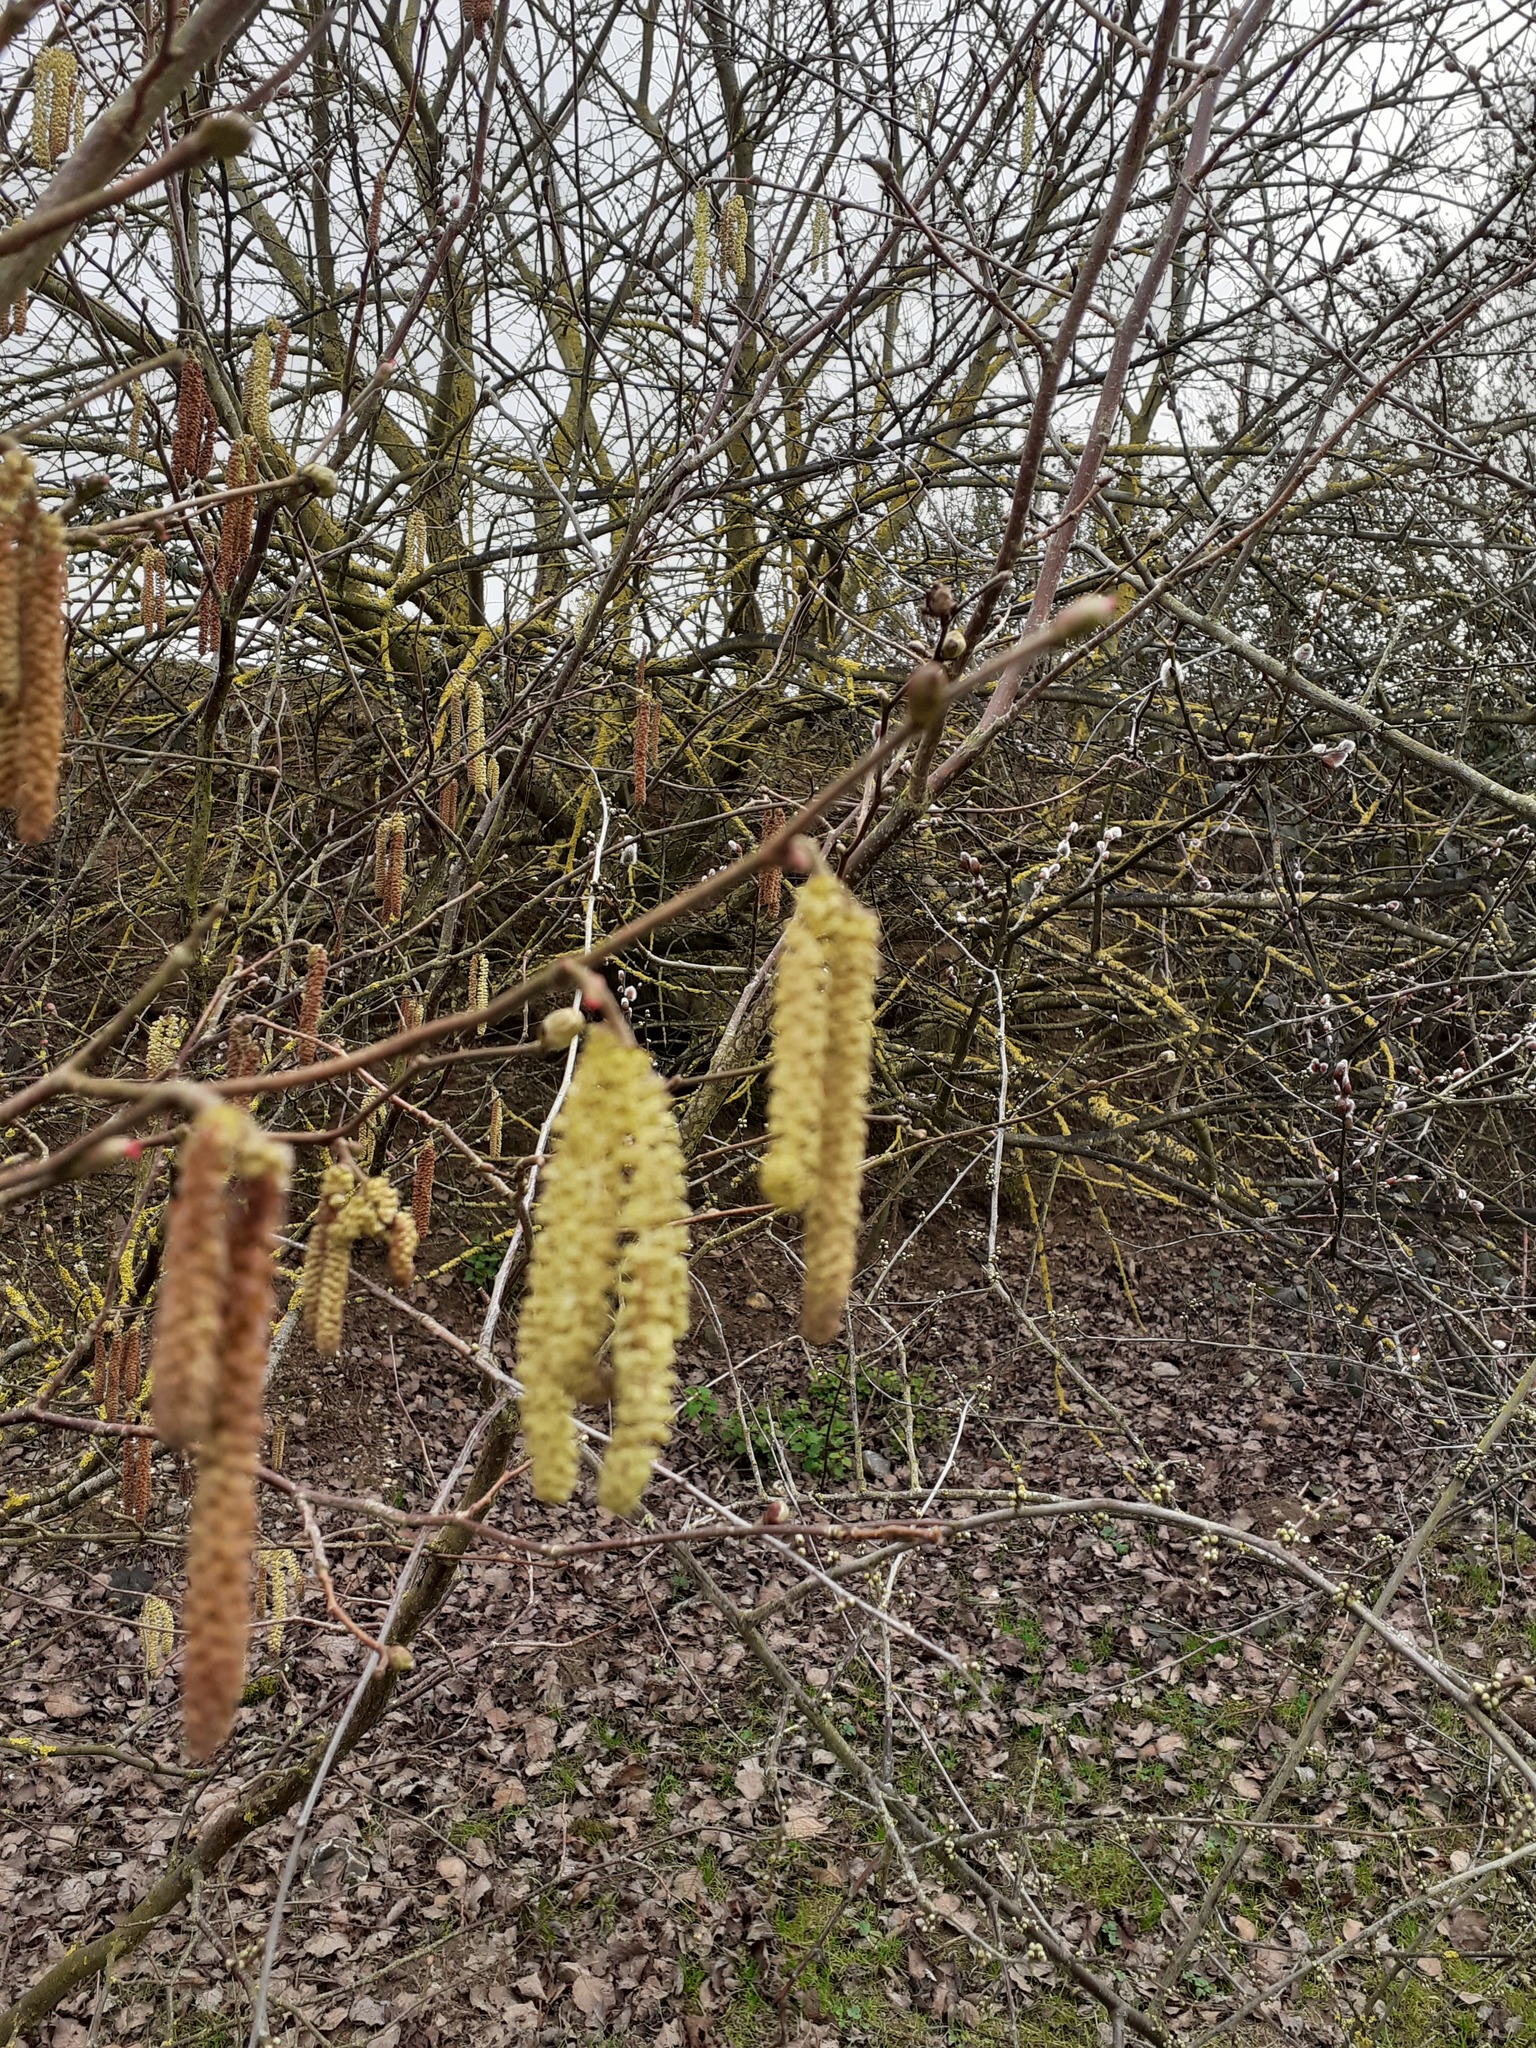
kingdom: Plantae
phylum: Tracheophyta
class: Magnoliopsida
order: Fagales
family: Betulaceae
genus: Corylus
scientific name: Corylus avellana
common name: European hazel
